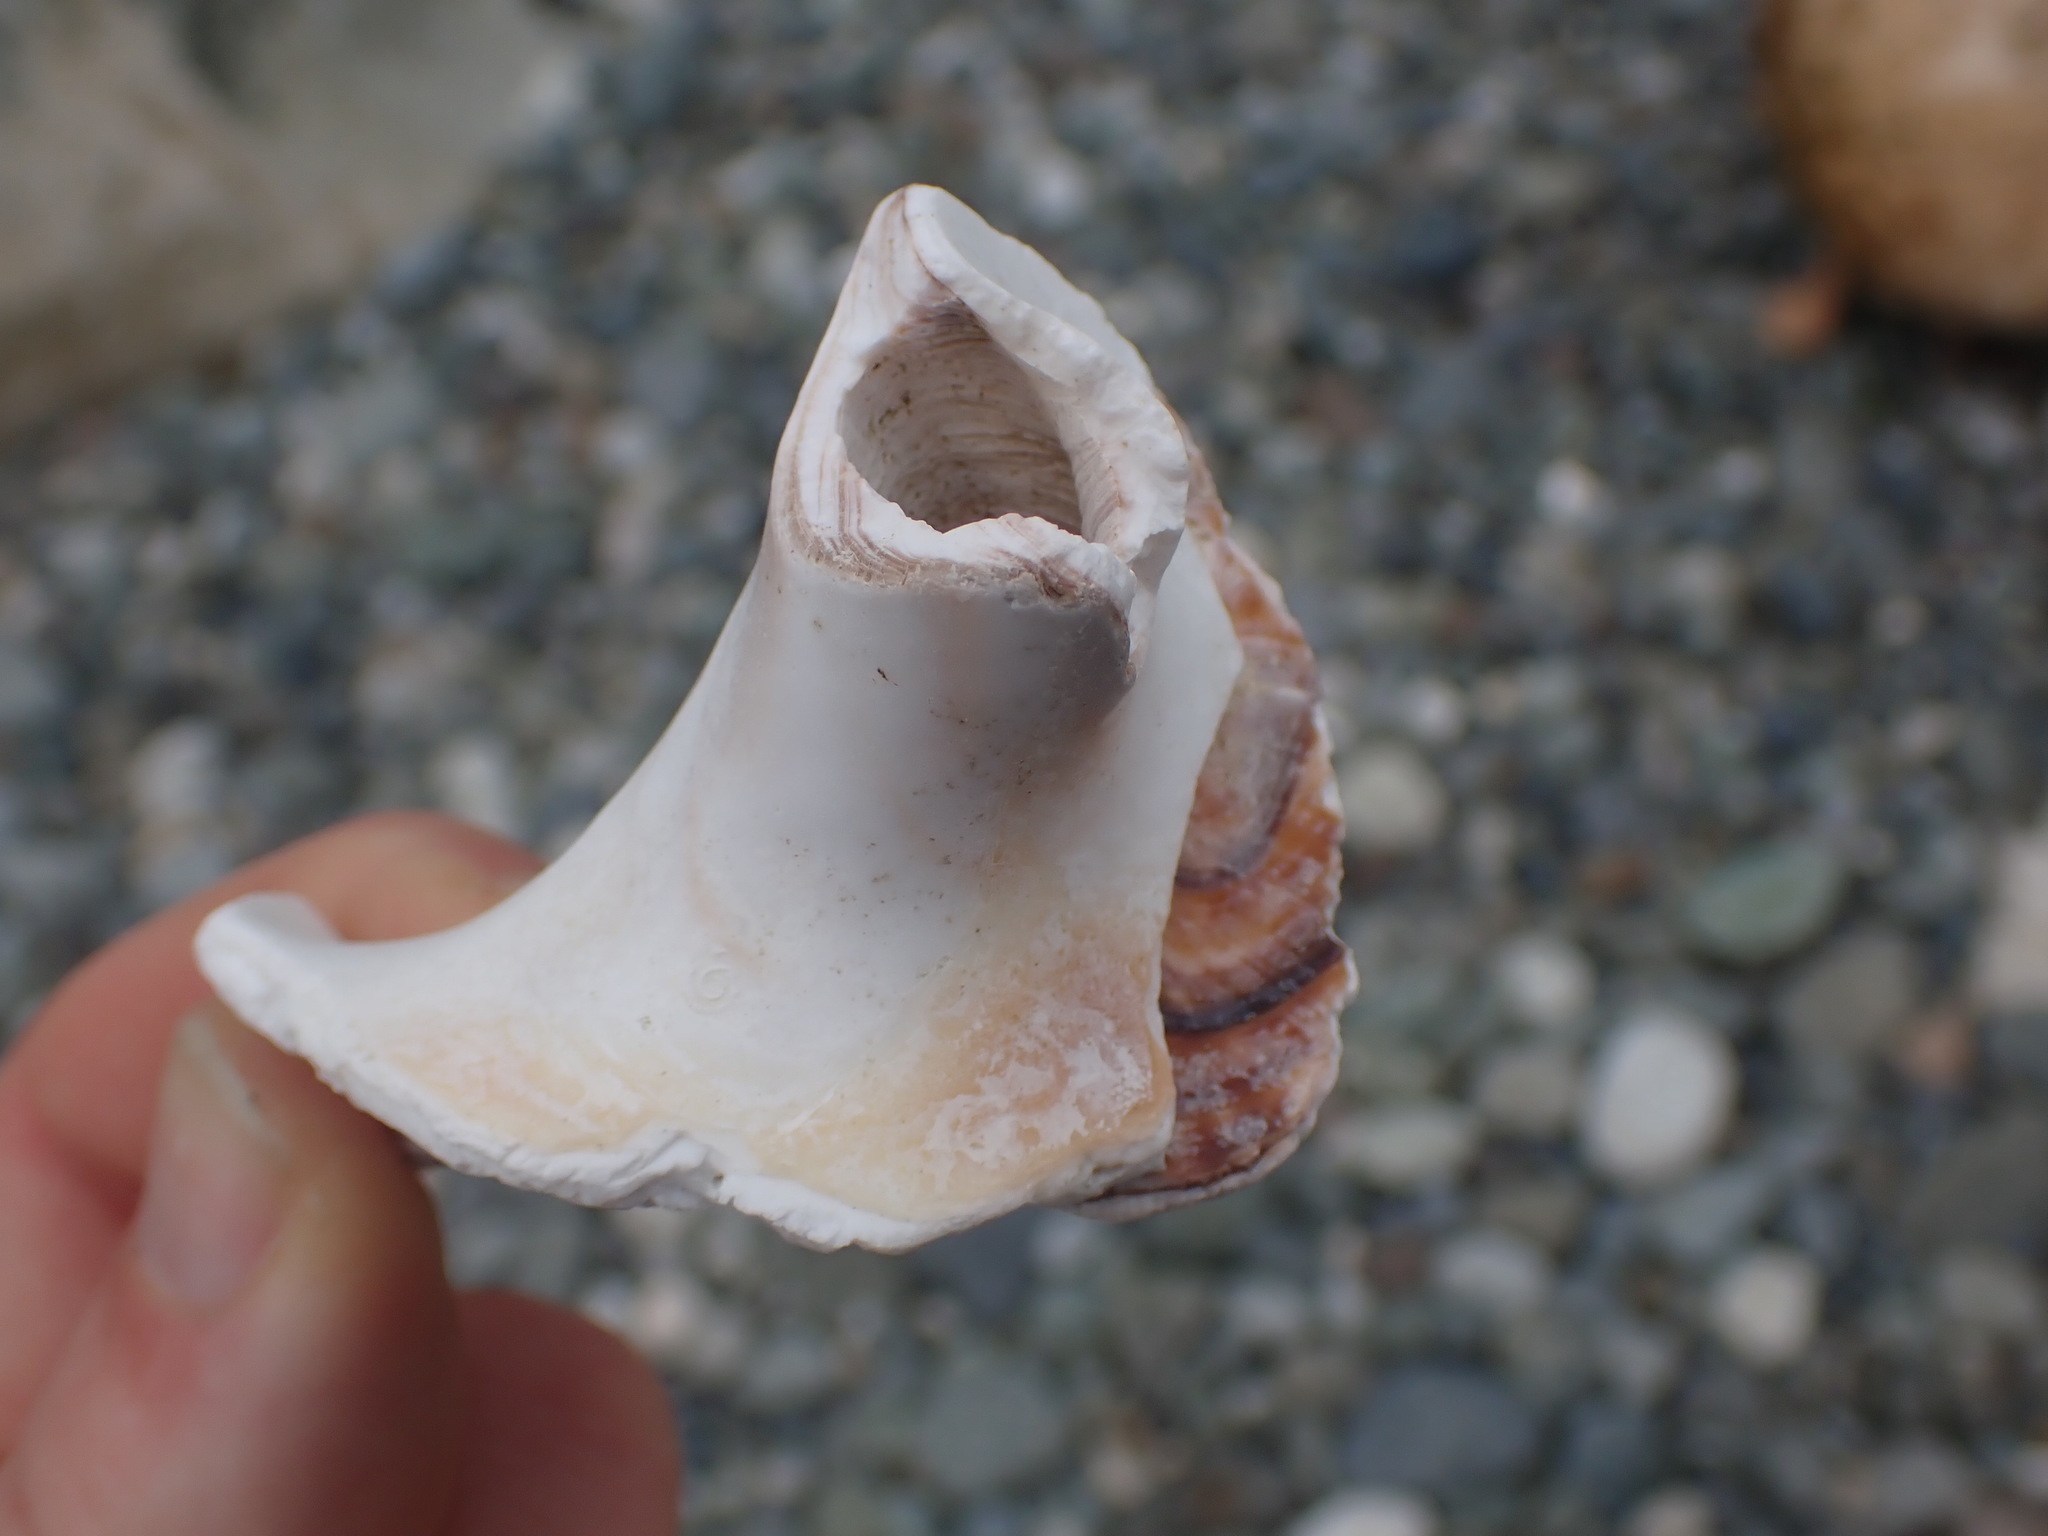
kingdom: Animalia
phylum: Mollusca
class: Gastropoda
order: Littorinimorpha
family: Naticidae
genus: Neverita
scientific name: Neverita lewisii
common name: Lewis' moonsnail
